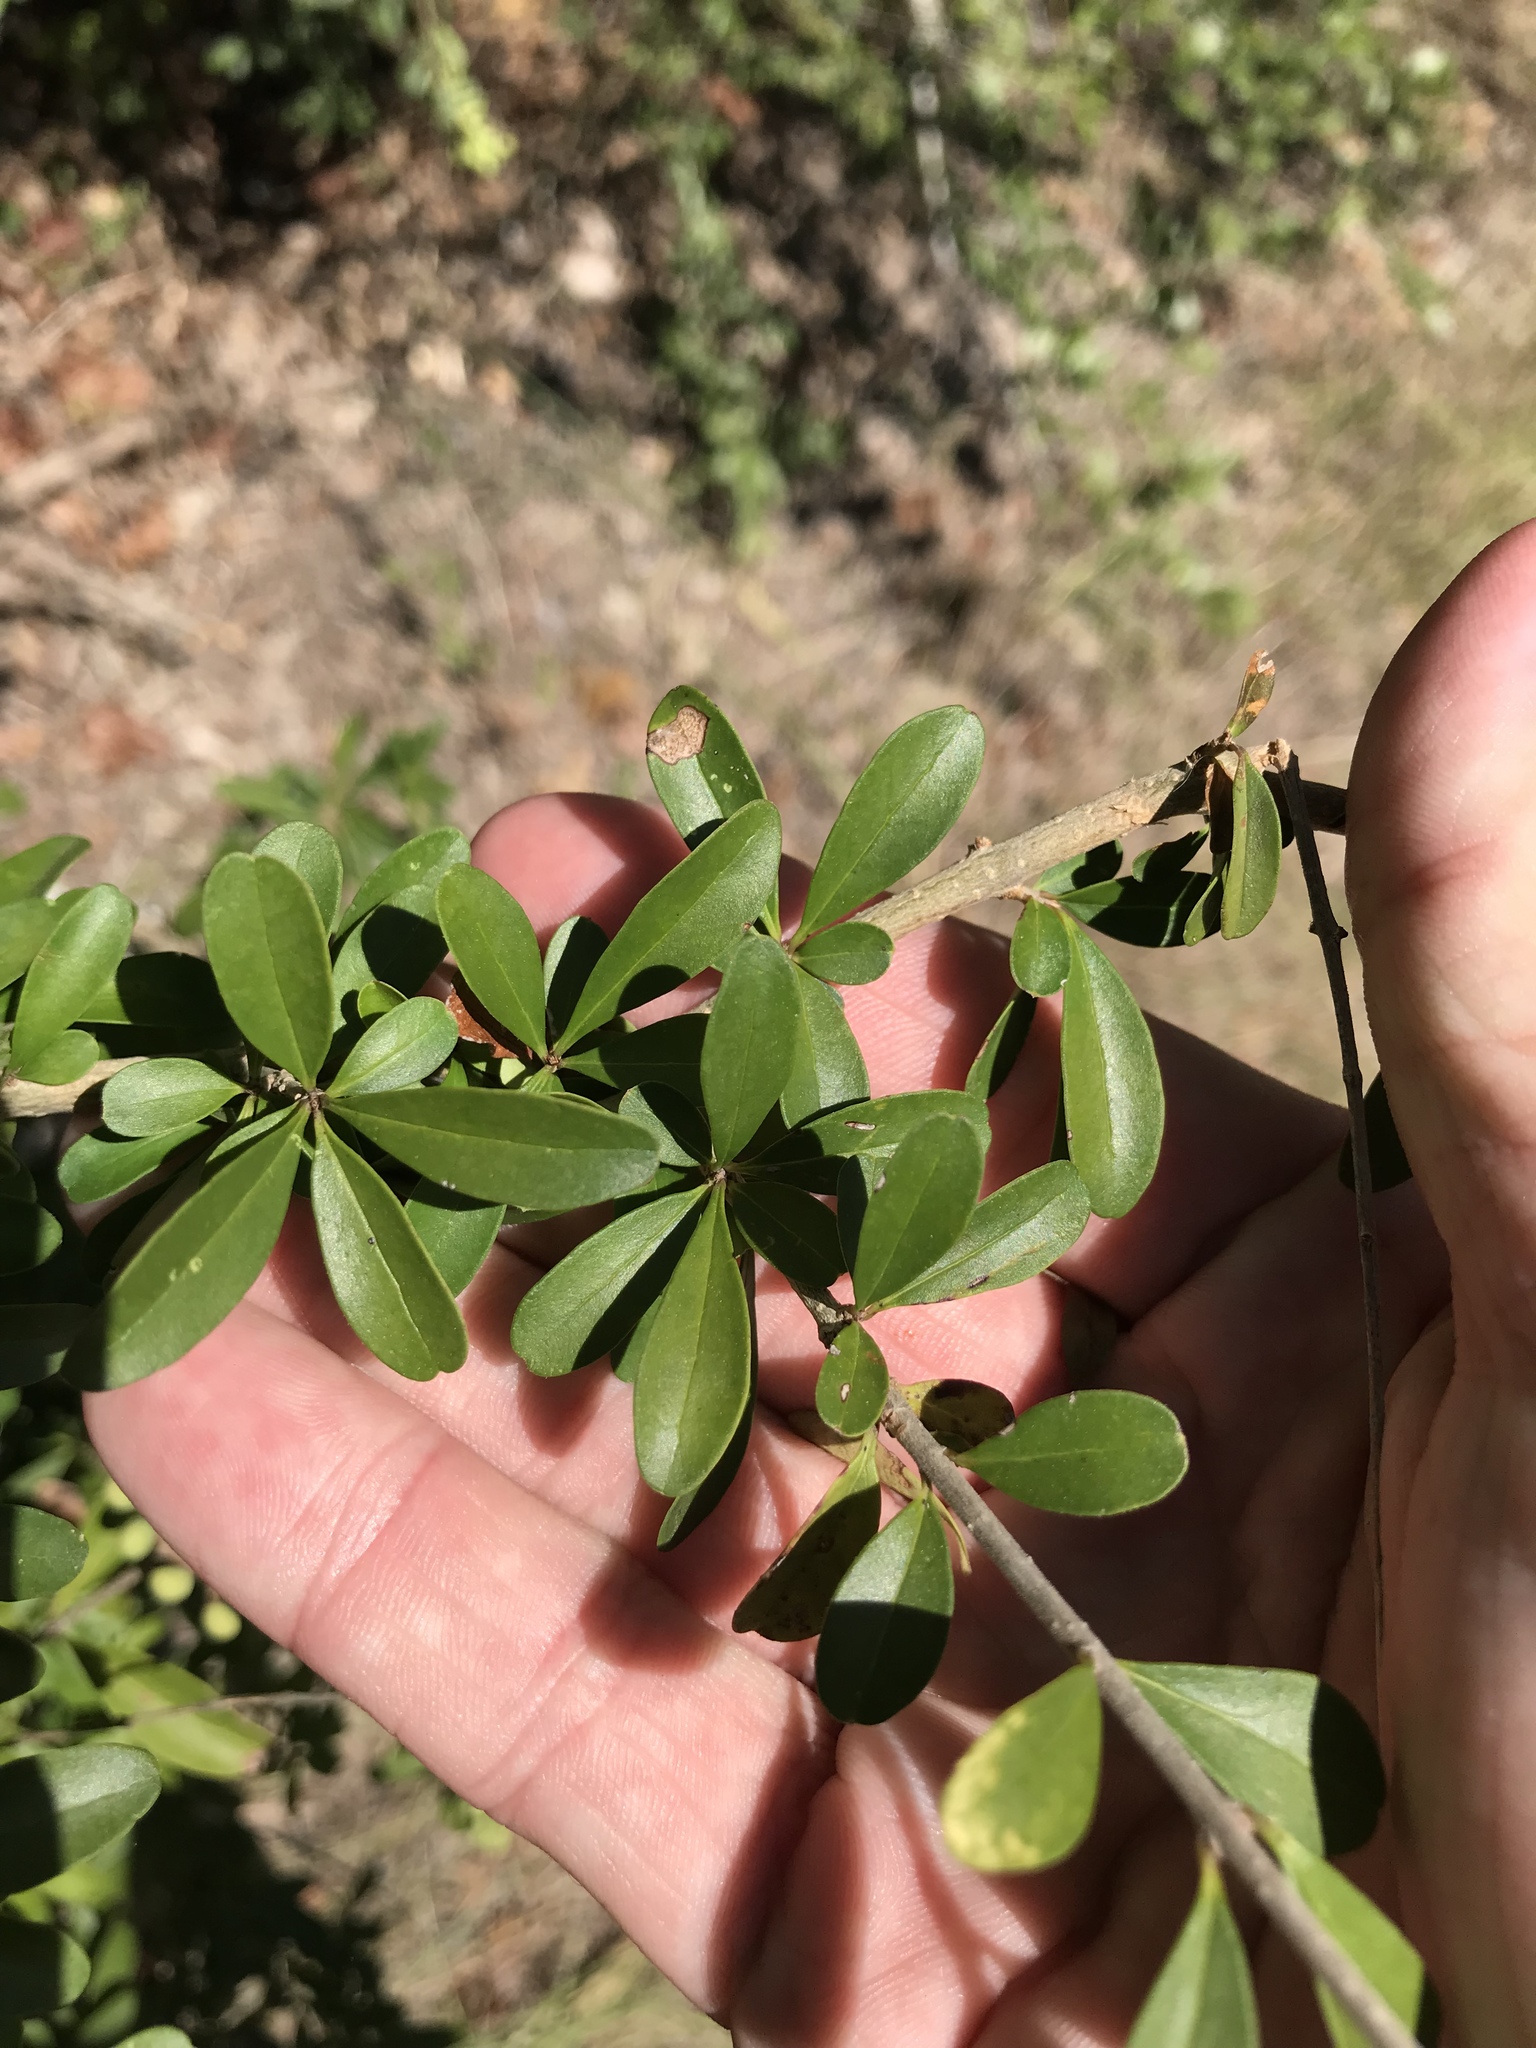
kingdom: Plantae
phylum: Tracheophyta
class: Magnoliopsida
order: Lamiales
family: Oleaceae
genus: Ligustrum
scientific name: Ligustrum quihoui
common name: Waxyleaf privet
